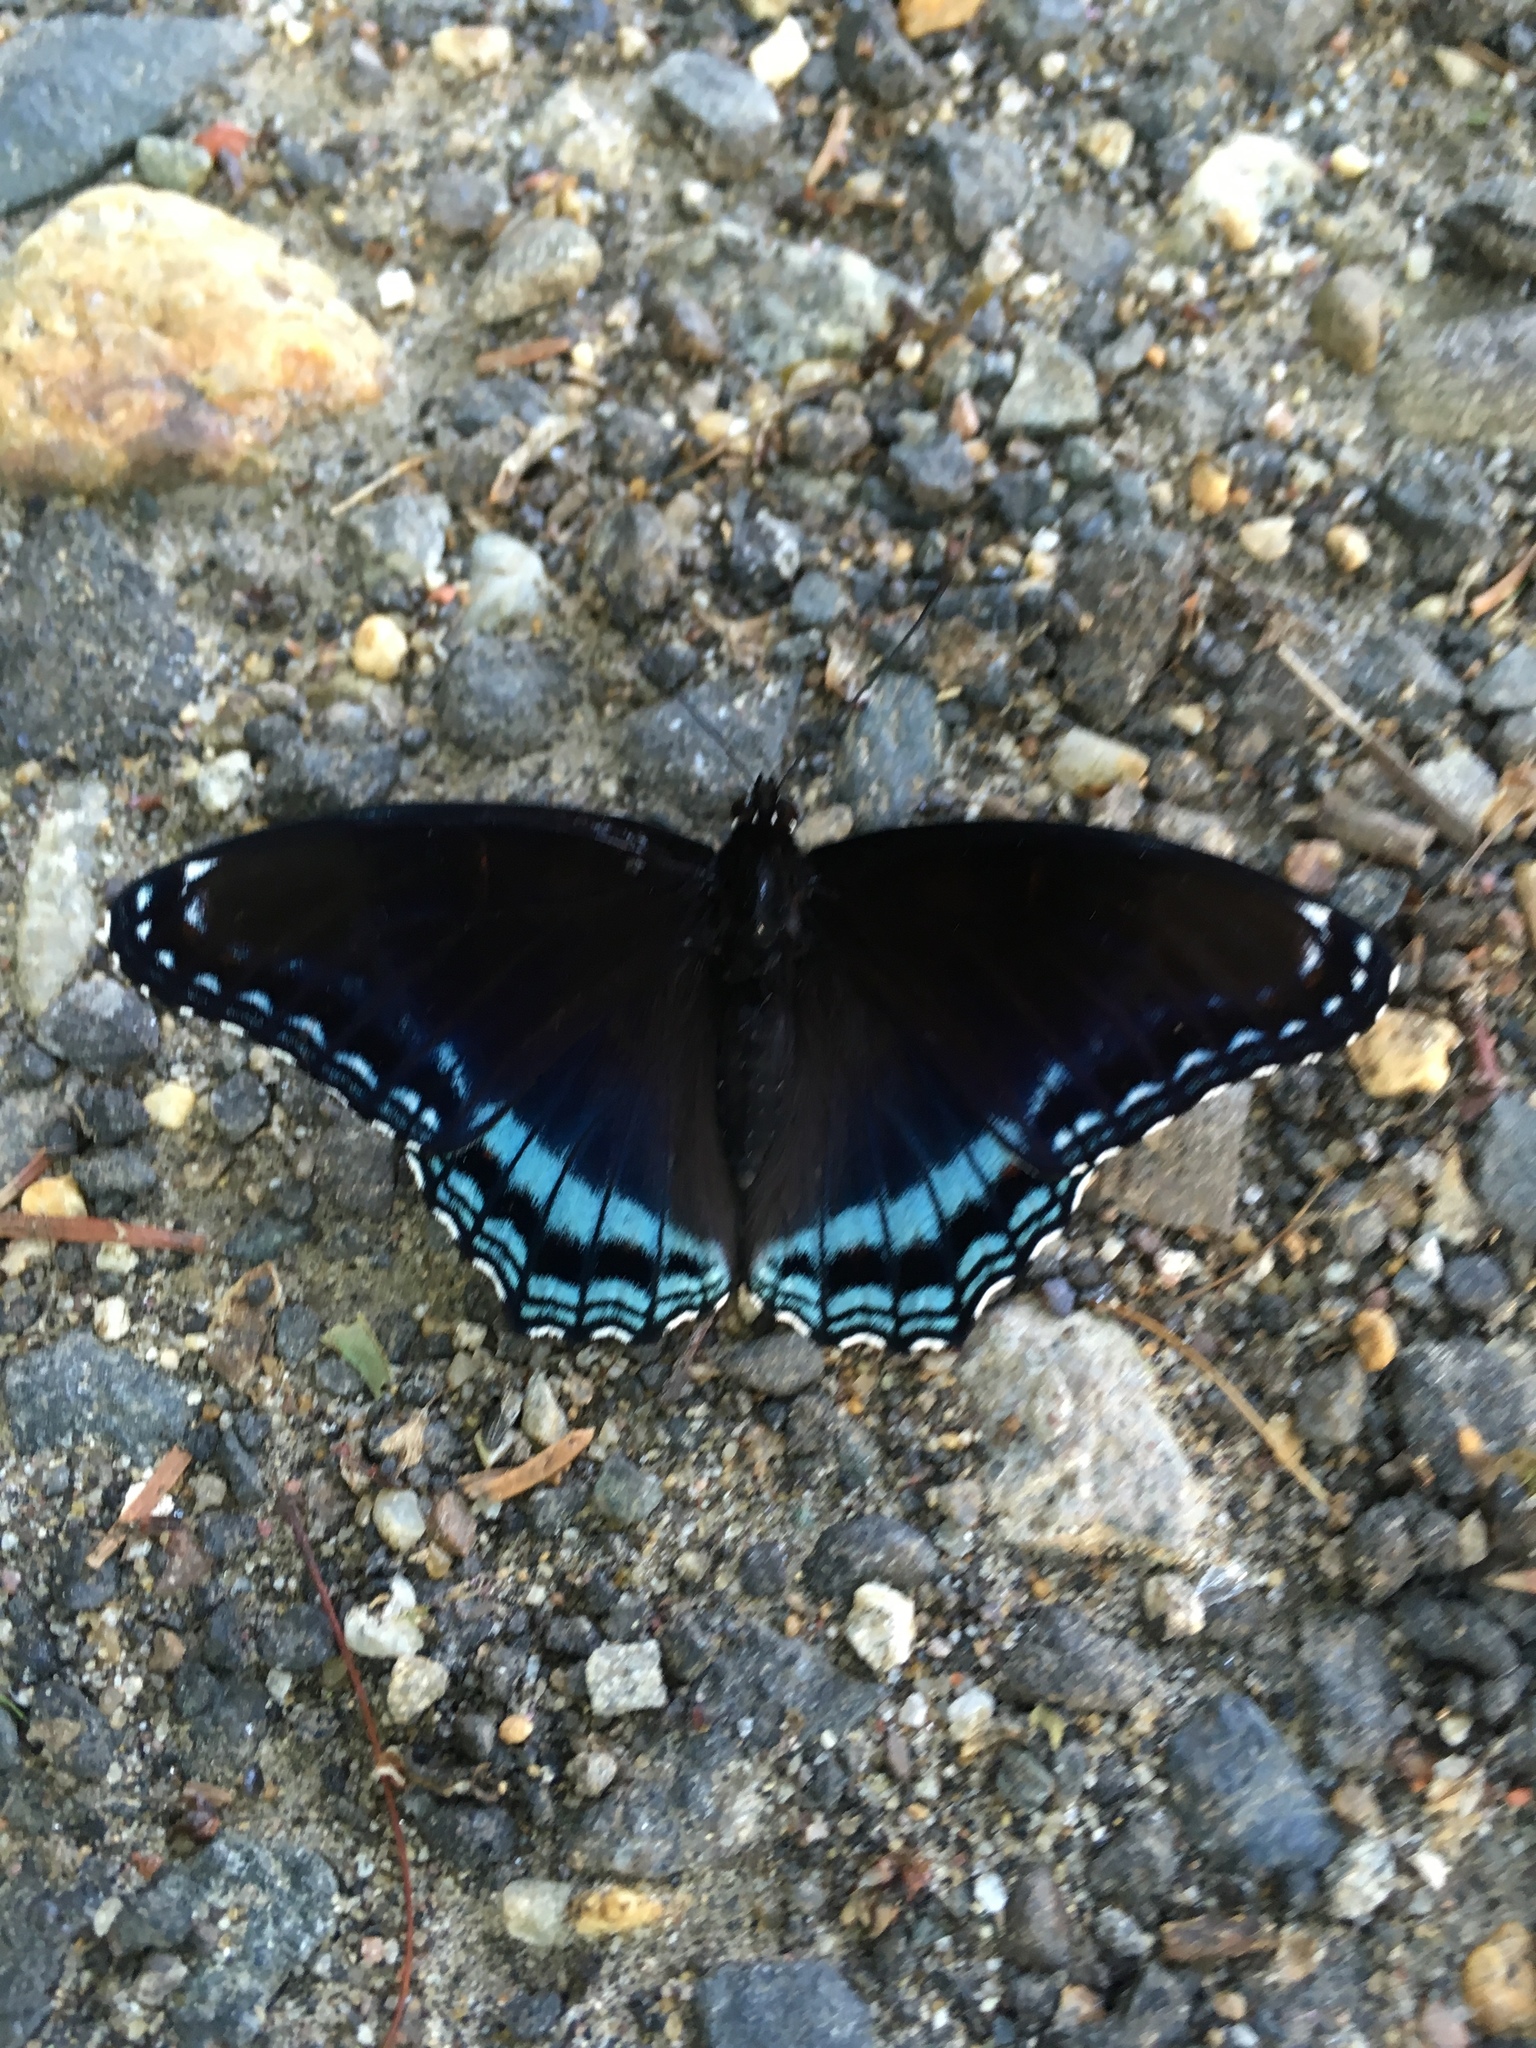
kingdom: Animalia
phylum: Arthropoda
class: Insecta
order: Lepidoptera
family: Nymphalidae
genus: Limenitis
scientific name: Limenitis astyanax
